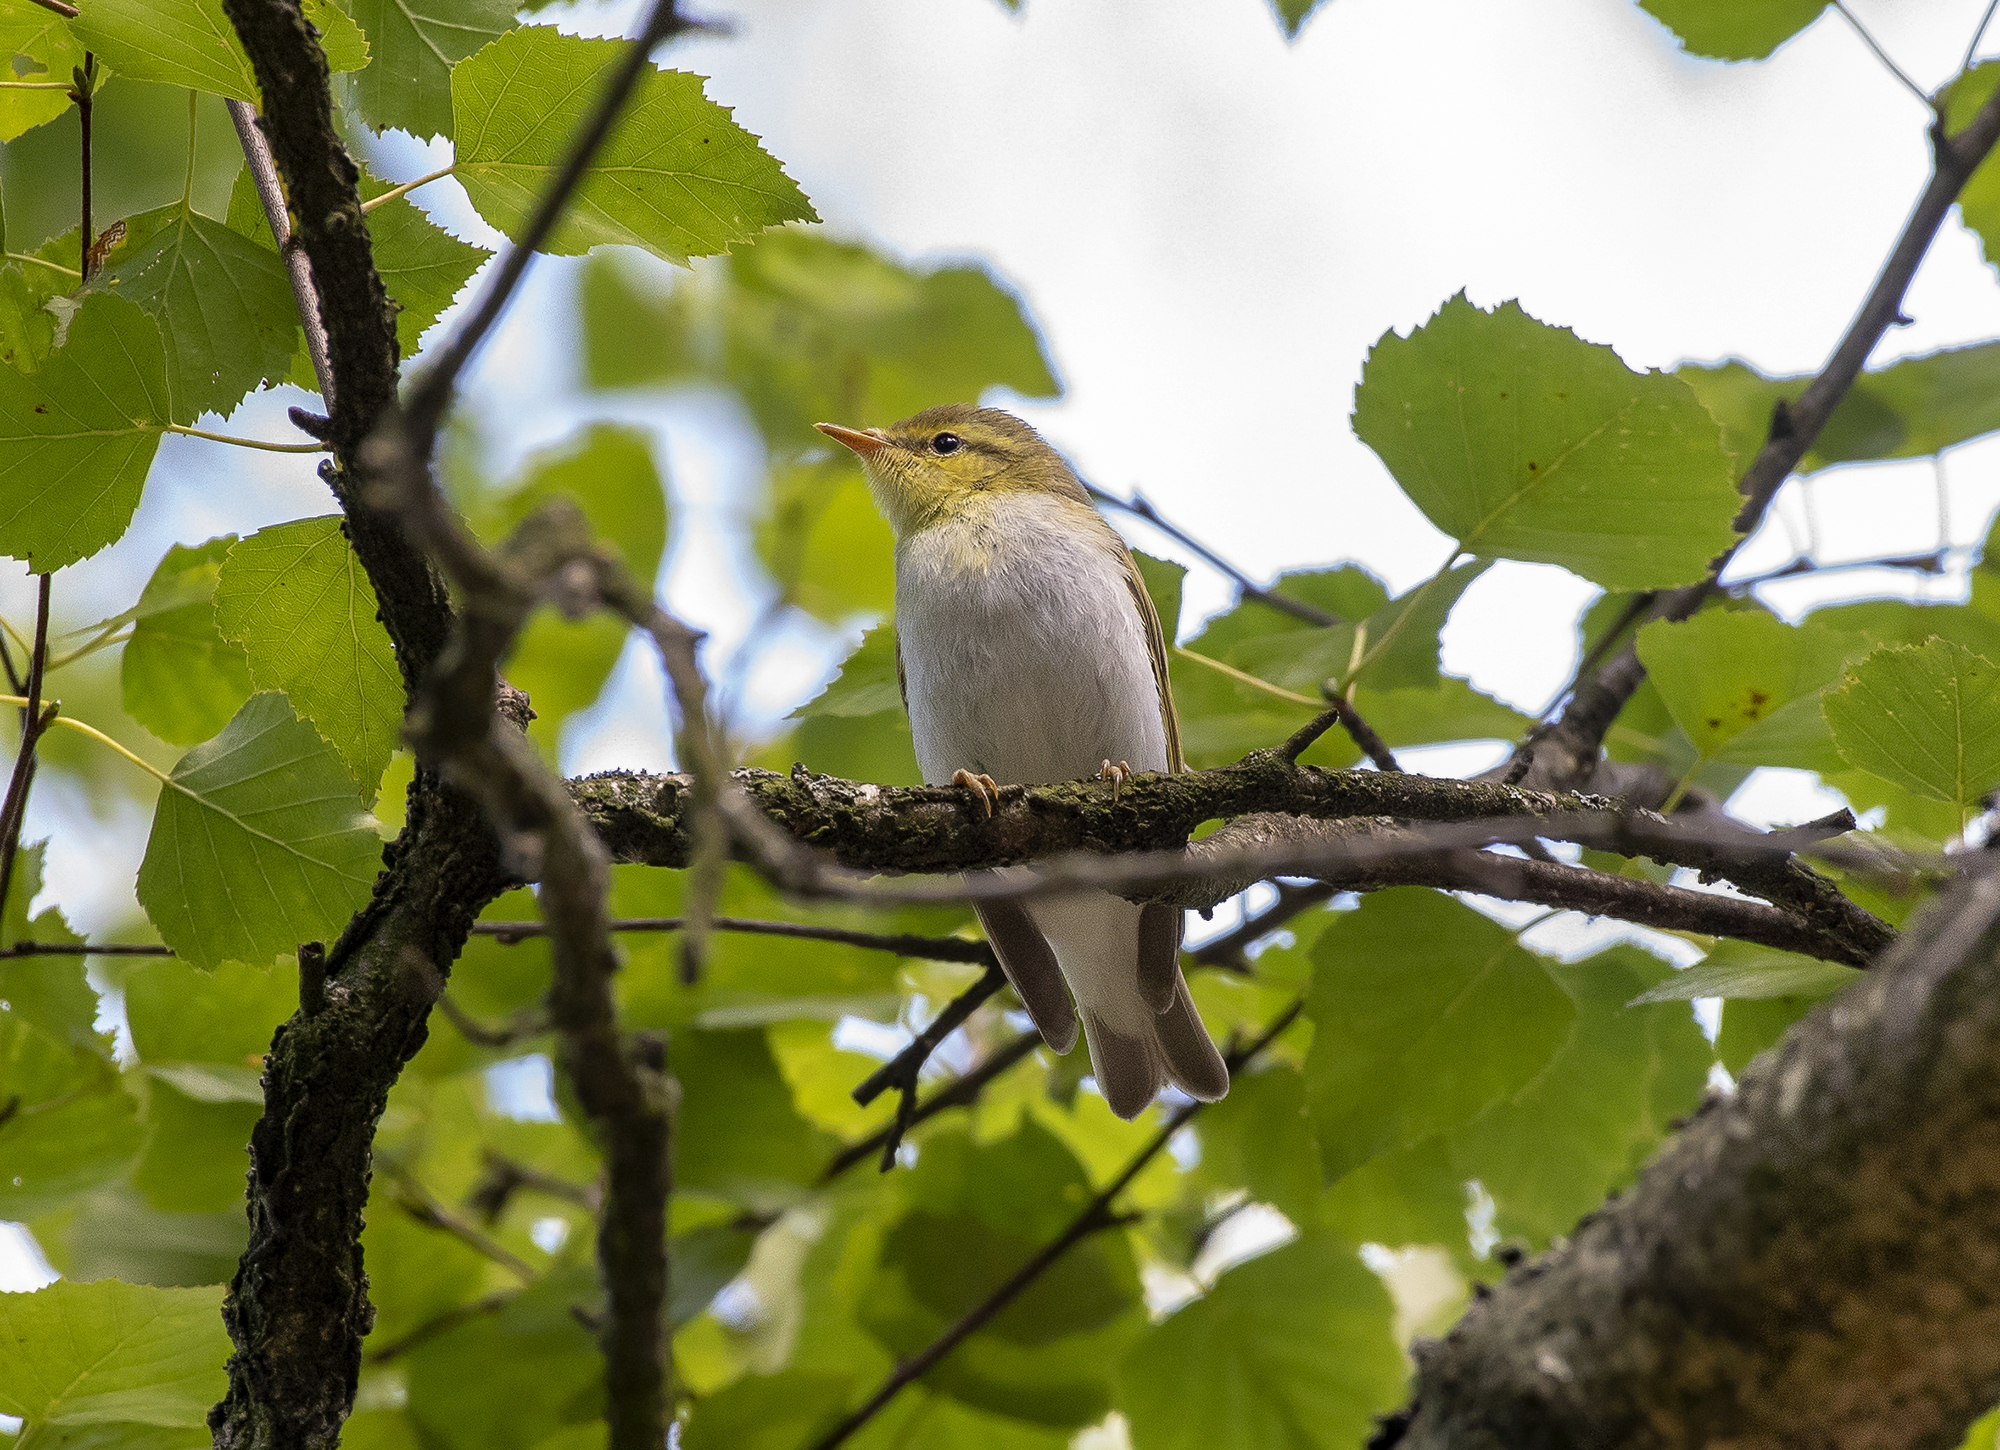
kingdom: Animalia
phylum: Chordata
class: Aves
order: Passeriformes
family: Phylloscopidae
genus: Phylloscopus
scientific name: Phylloscopus sibillatrix
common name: Wood warbler
